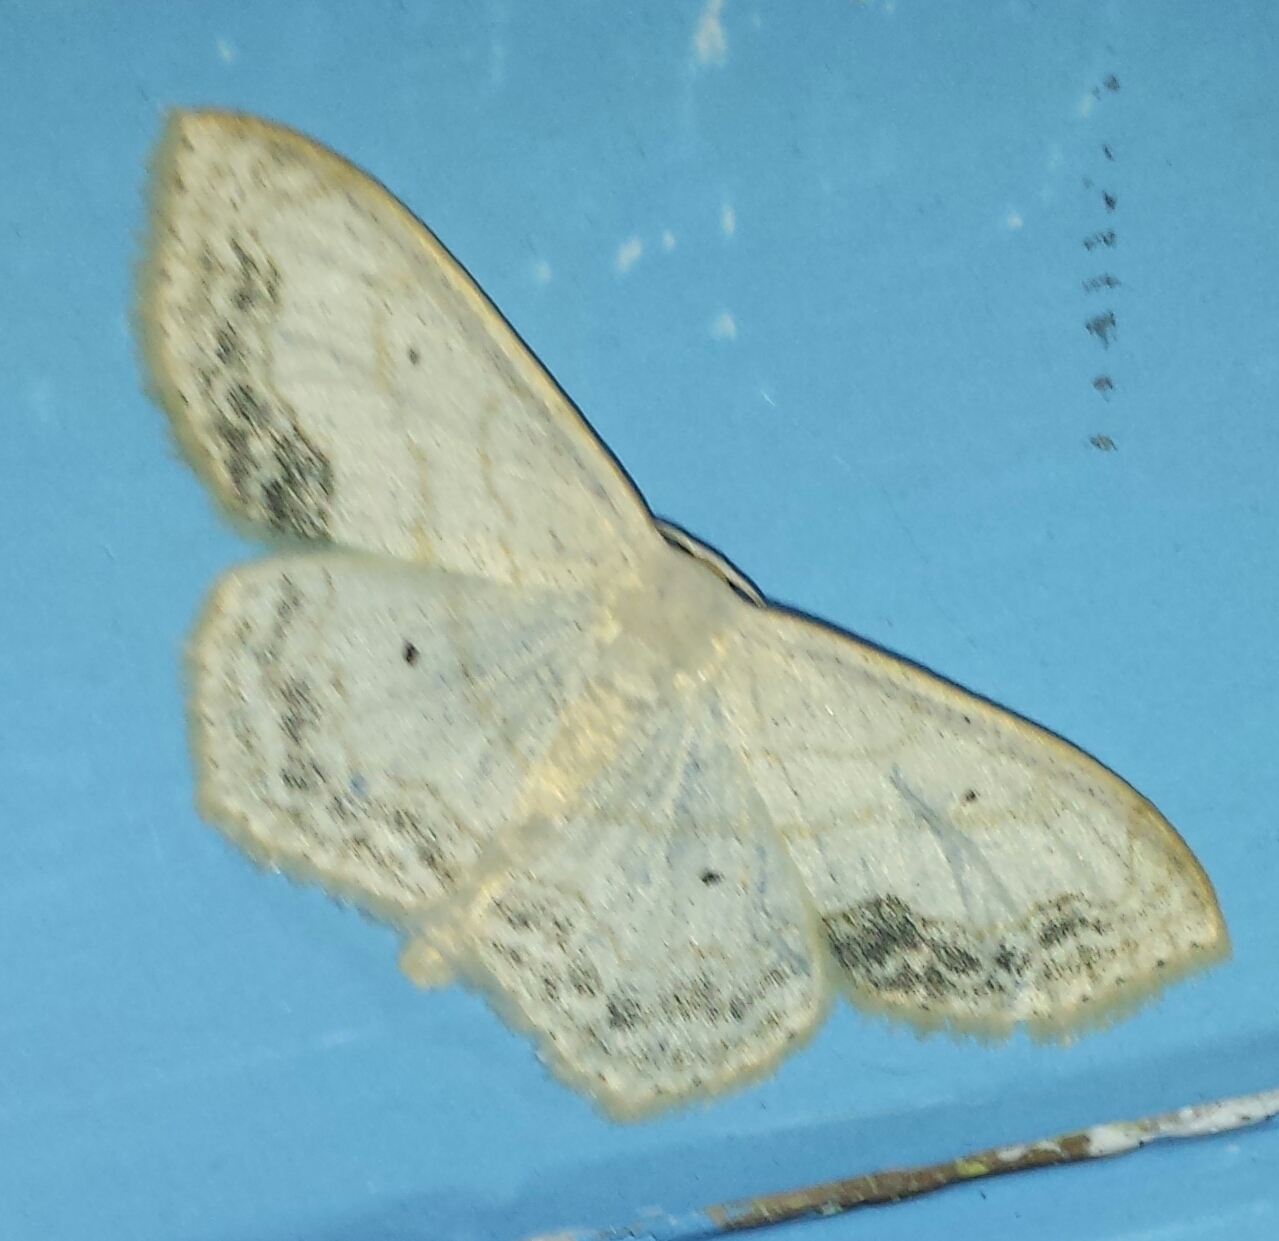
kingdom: Animalia
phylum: Arthropoda
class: Insecta
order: Lepidoptera
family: Geometridae
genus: Scopula
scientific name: Scopula limboundata
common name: Large lace border
